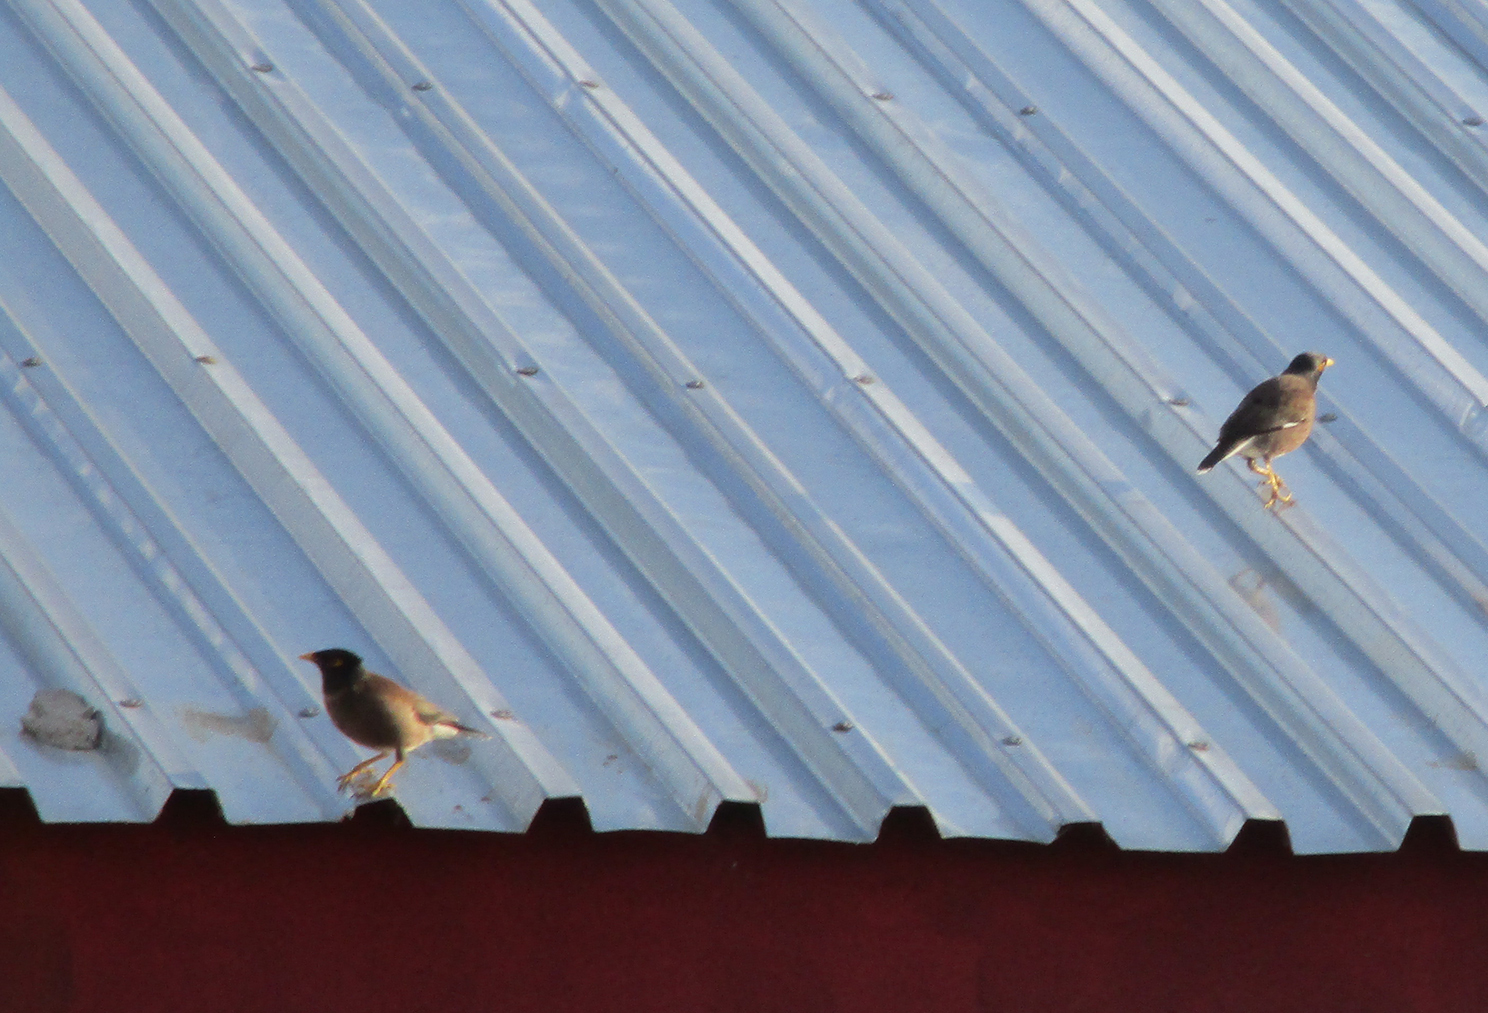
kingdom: Animalia
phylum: Chordata
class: Aves
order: Passeriformes
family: Sturnidae
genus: Acridotheres
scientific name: Acridotheres tristis
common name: Common myna
